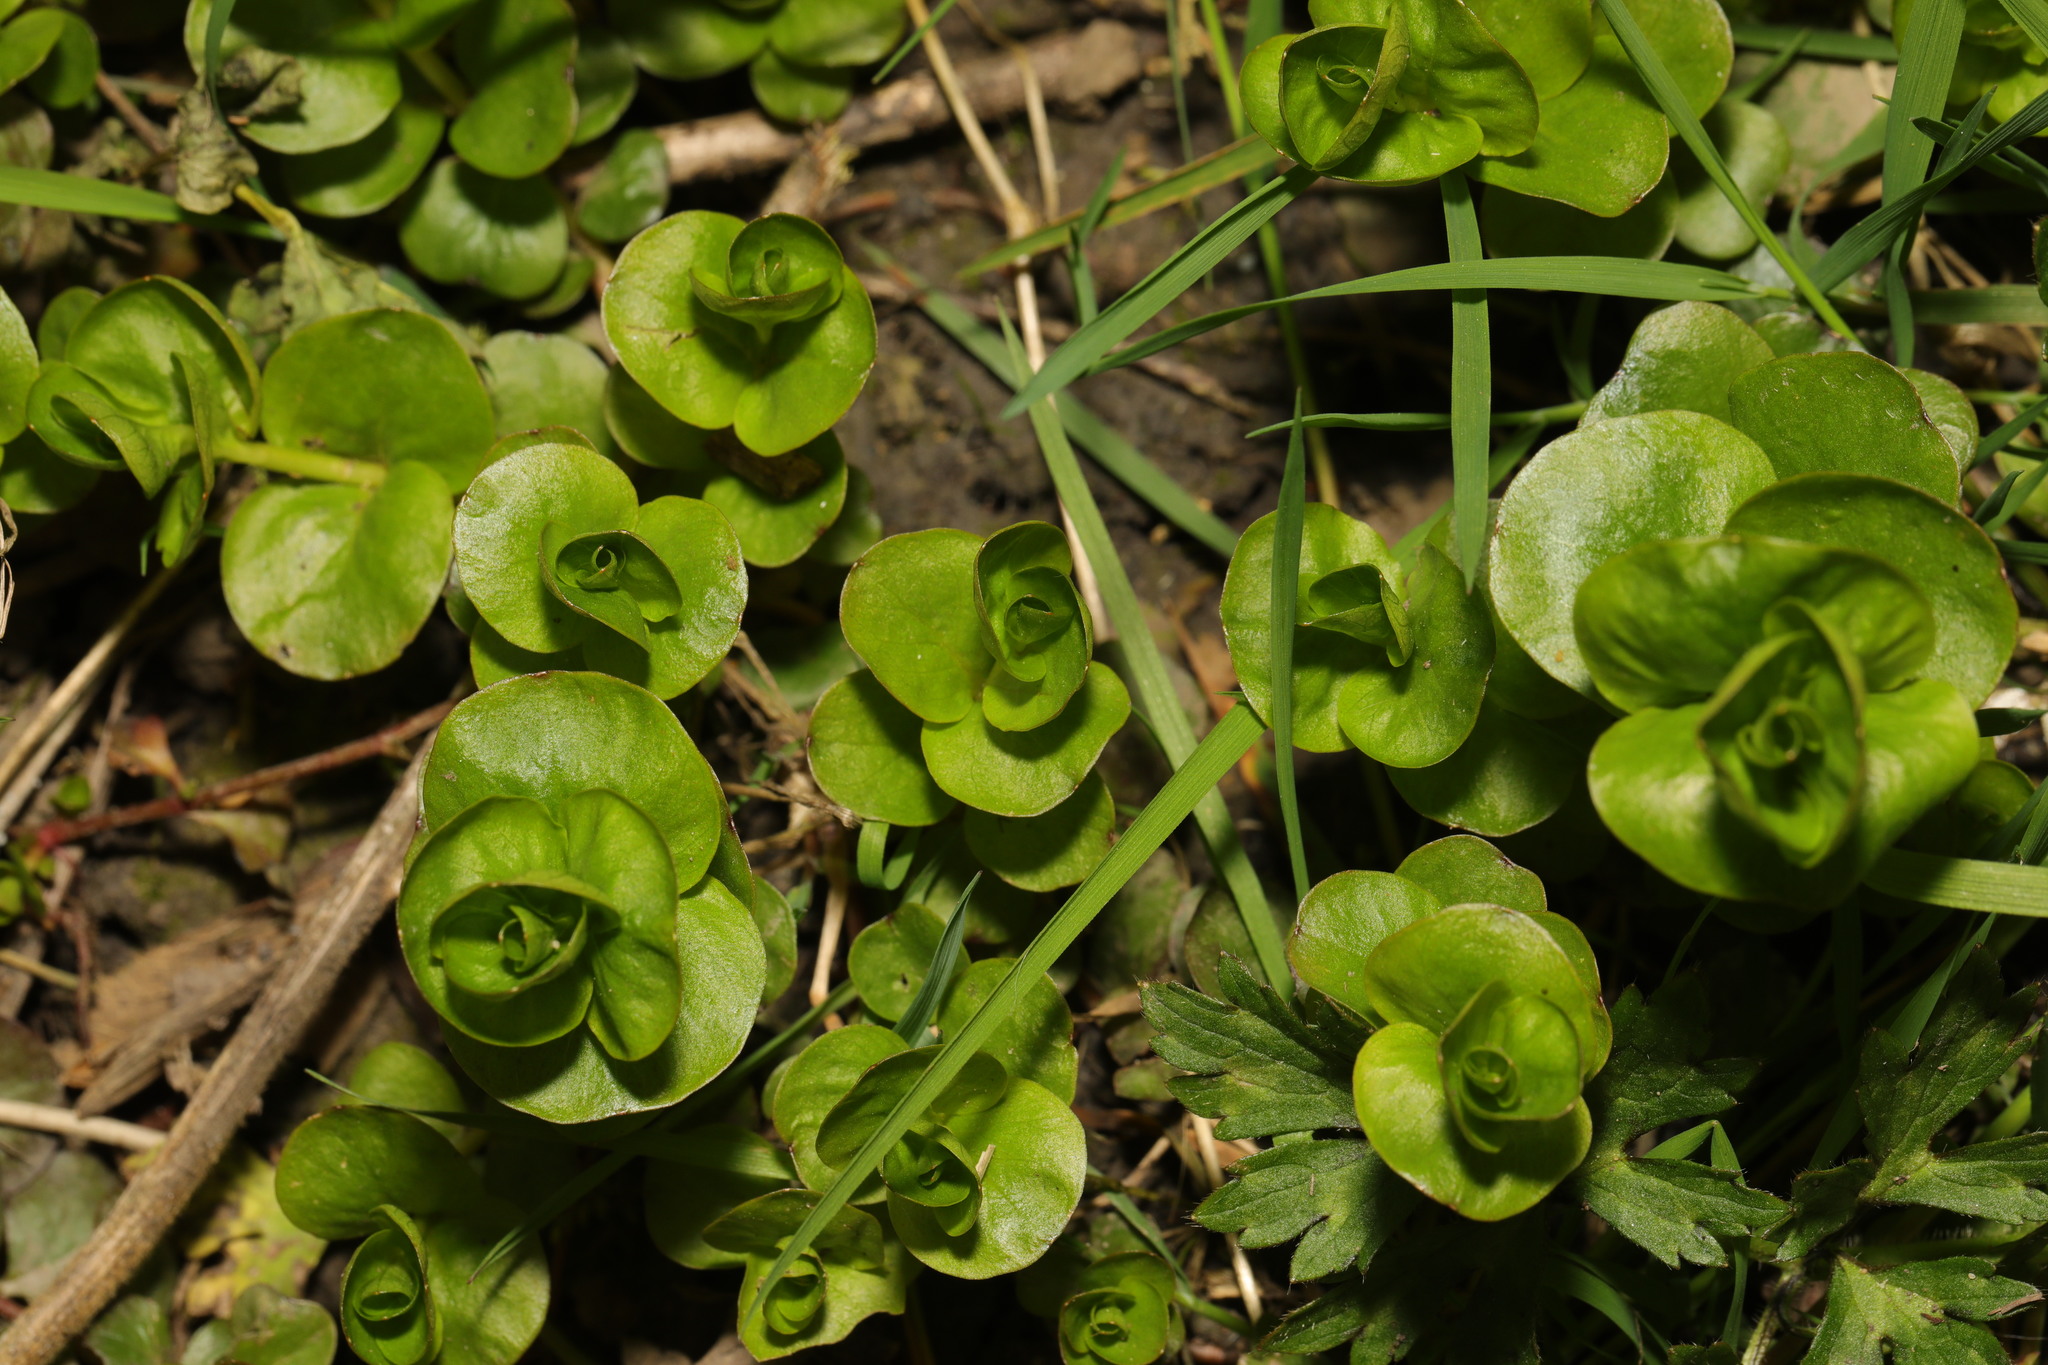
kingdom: Plantae
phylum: Tracheophyta
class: Magnoliopsida
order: Ericales
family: Primulaceae
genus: Lysimachia
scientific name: Lysimachia nummularia
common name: Moneywort
